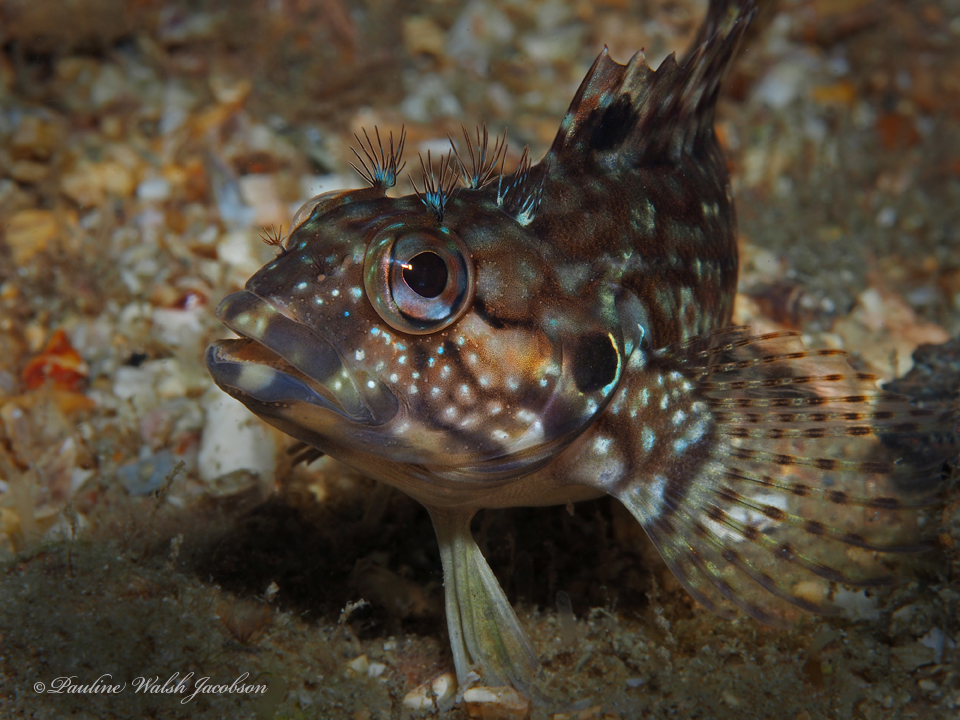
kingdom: Animalia
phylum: Chordata
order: Perciformes
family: Labrisomidae
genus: Labrisomus
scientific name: Labrisomus conditus
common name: Masquerader hairy blenny
